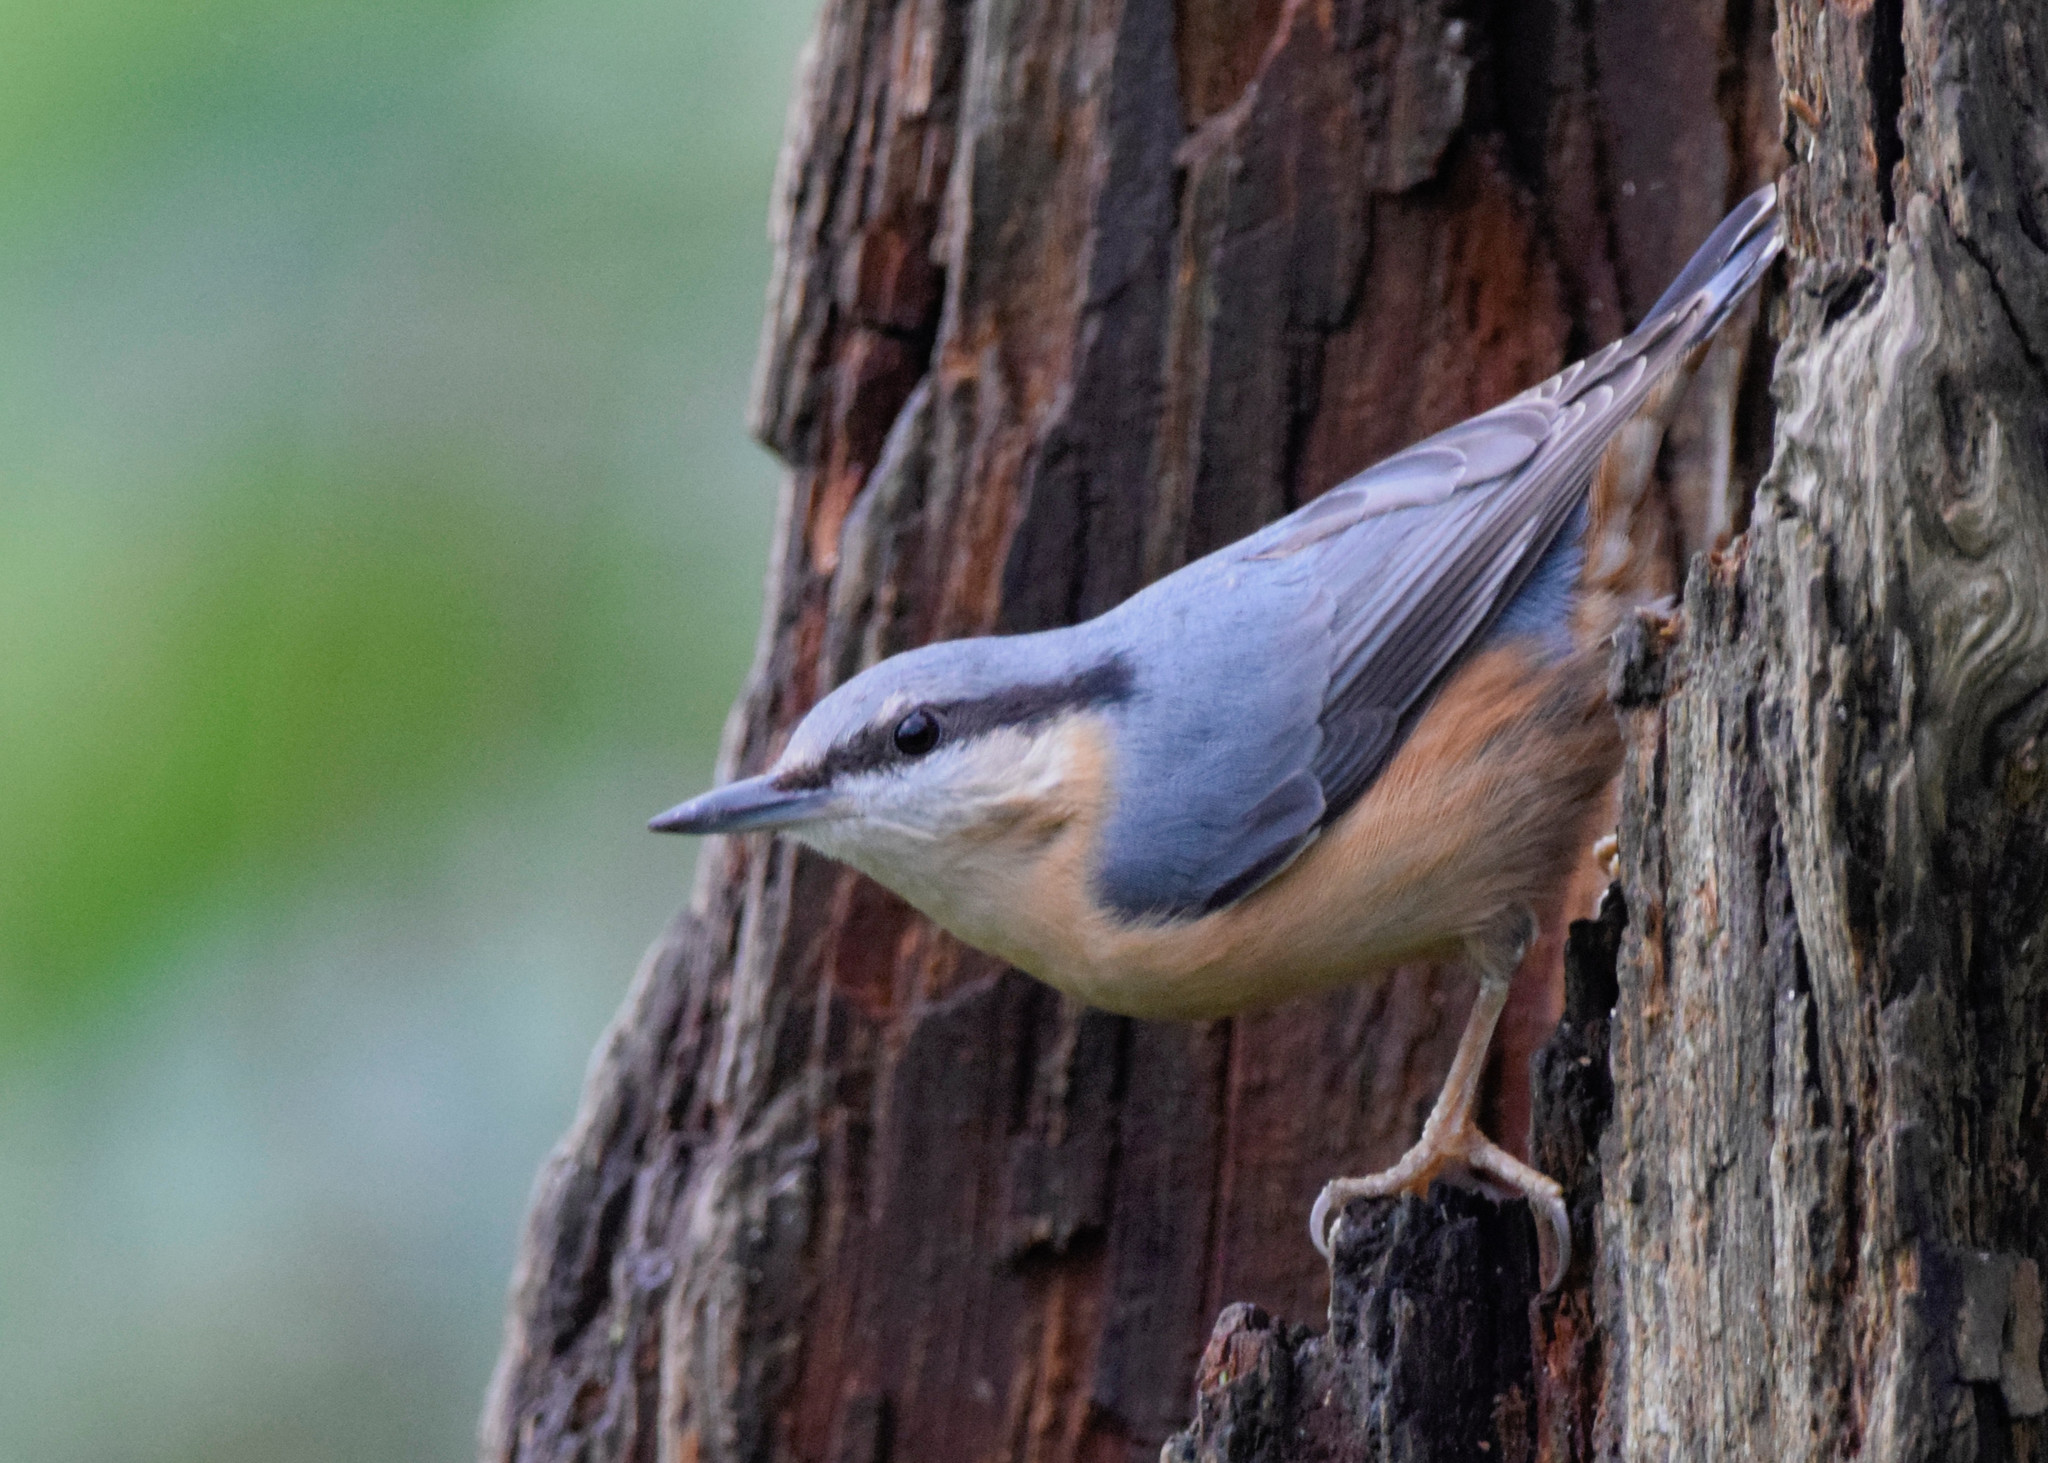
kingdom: Animalia
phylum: Chordata
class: Aves
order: Passeriformes
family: Sittidae
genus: Sitta
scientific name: Sitta europaea
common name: Eurasian nuthatch
